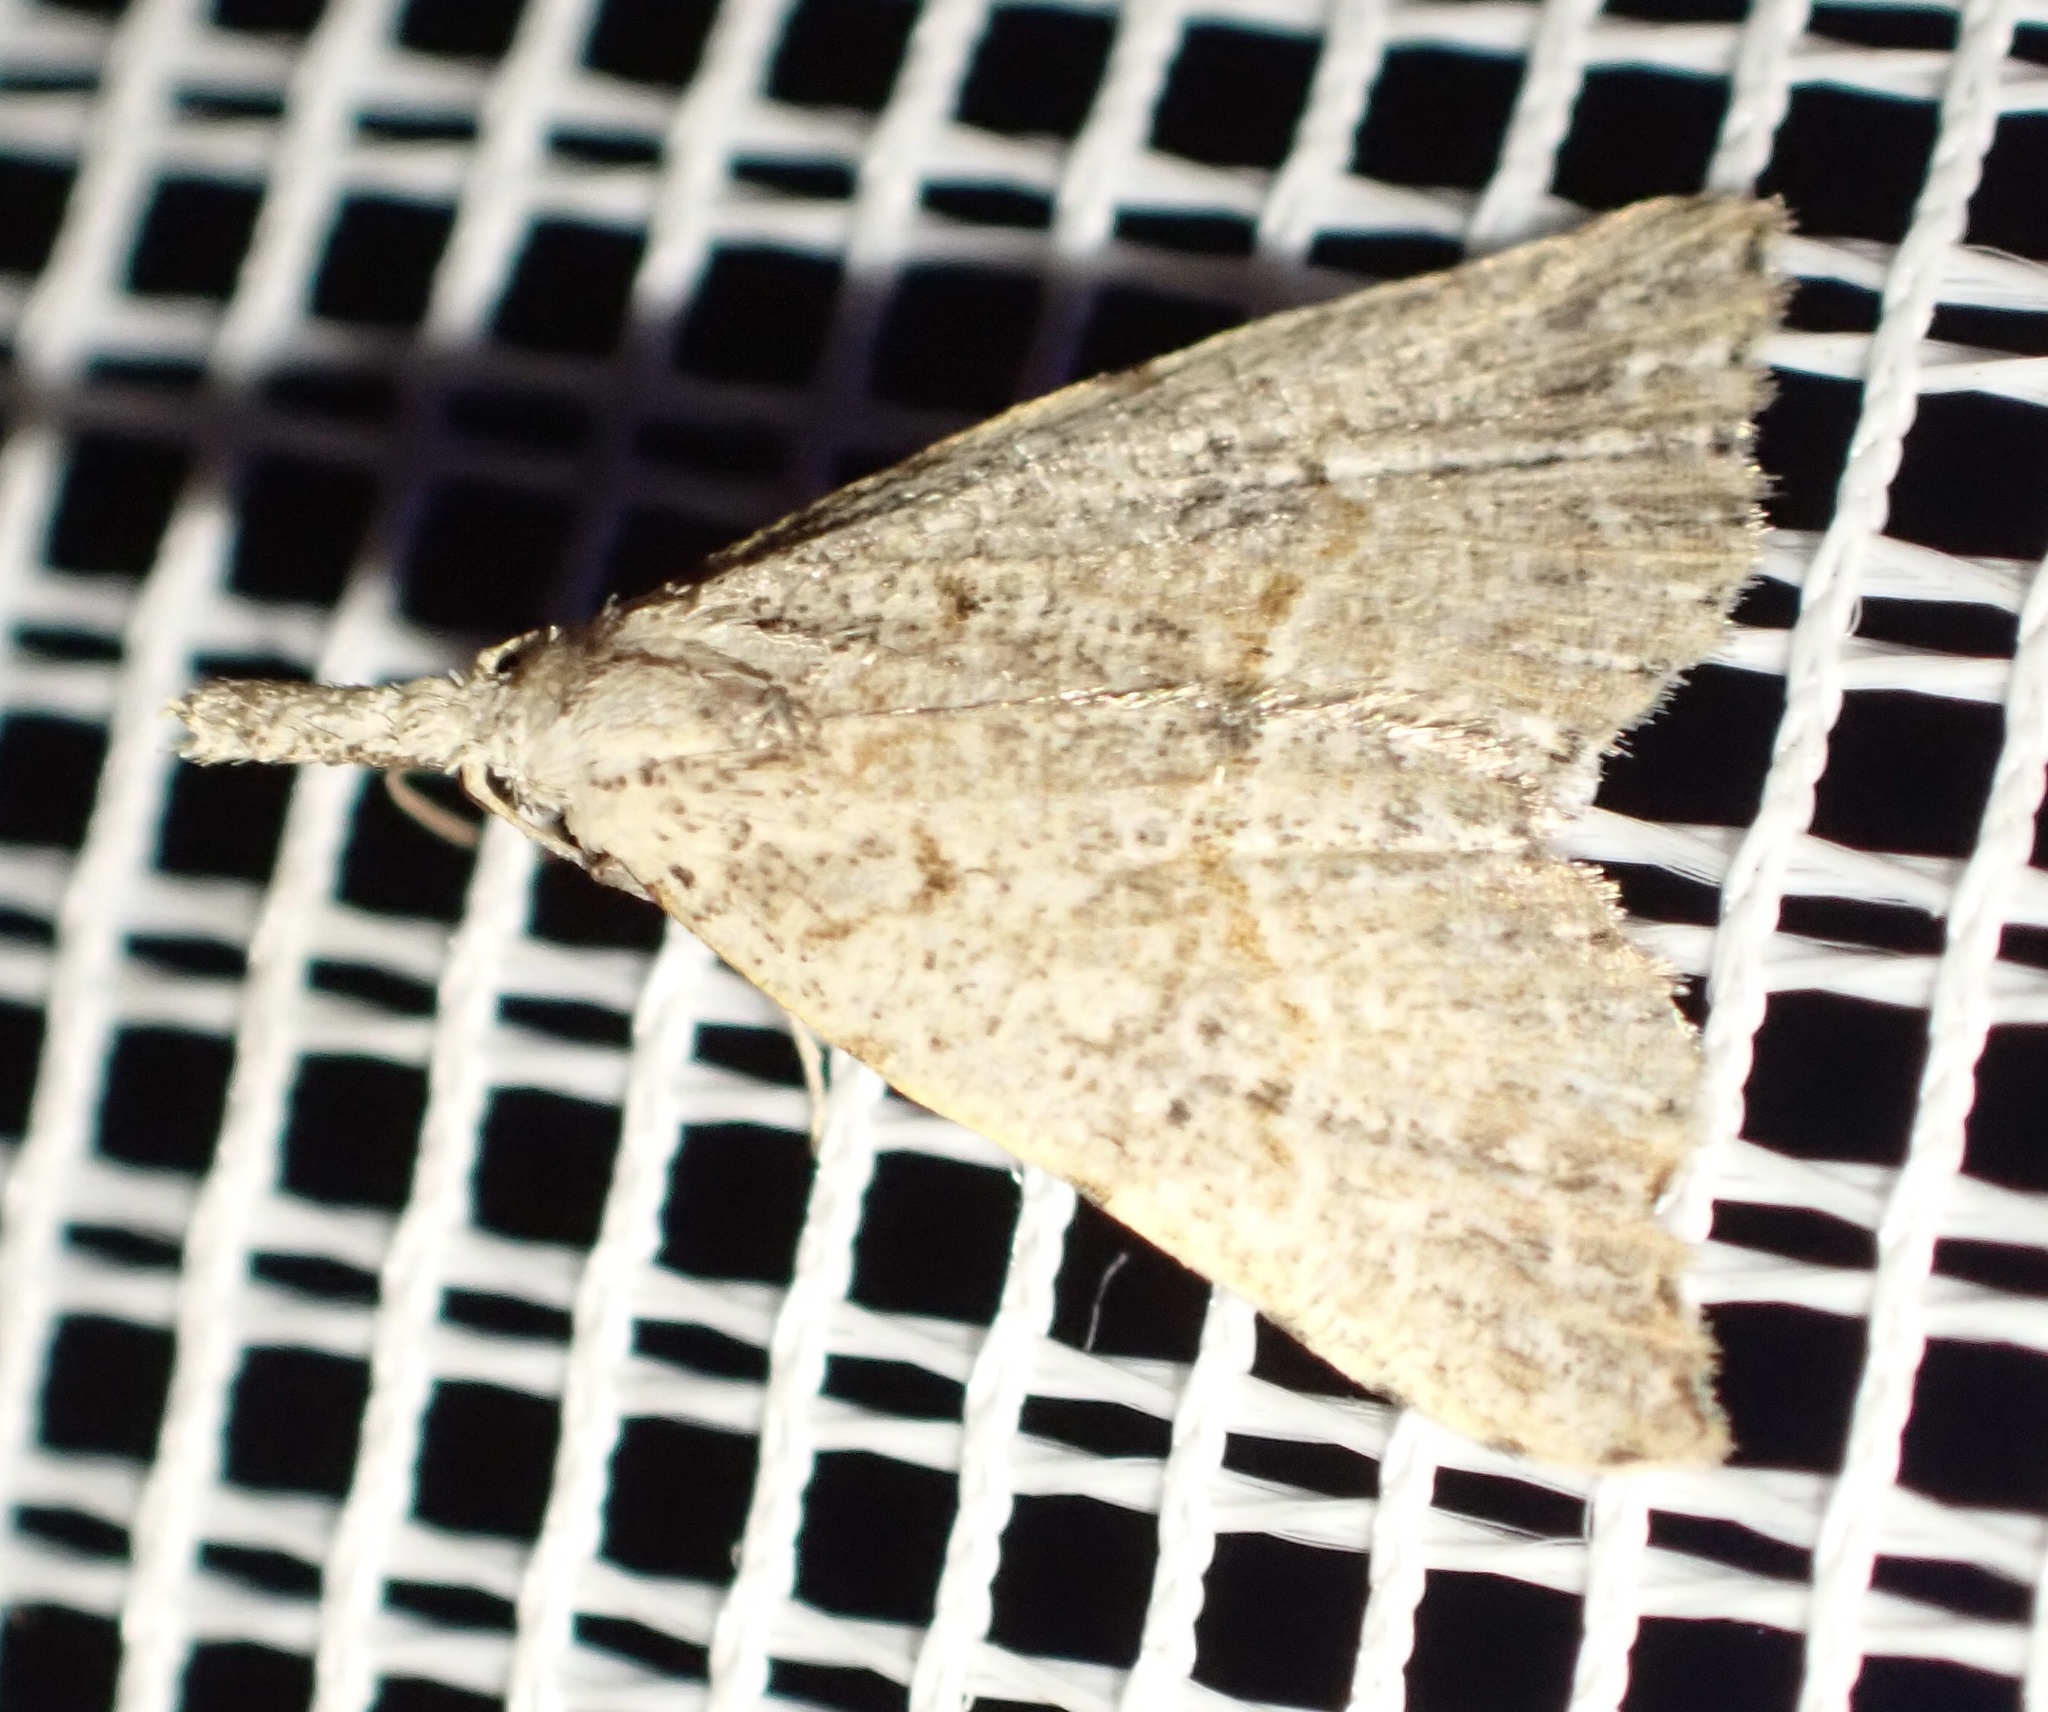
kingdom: Animalia
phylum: Arthropoda
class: Insecta
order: Lepidoptera
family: Erebidae
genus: Trigonistis
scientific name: Trigonistis asthenopa
